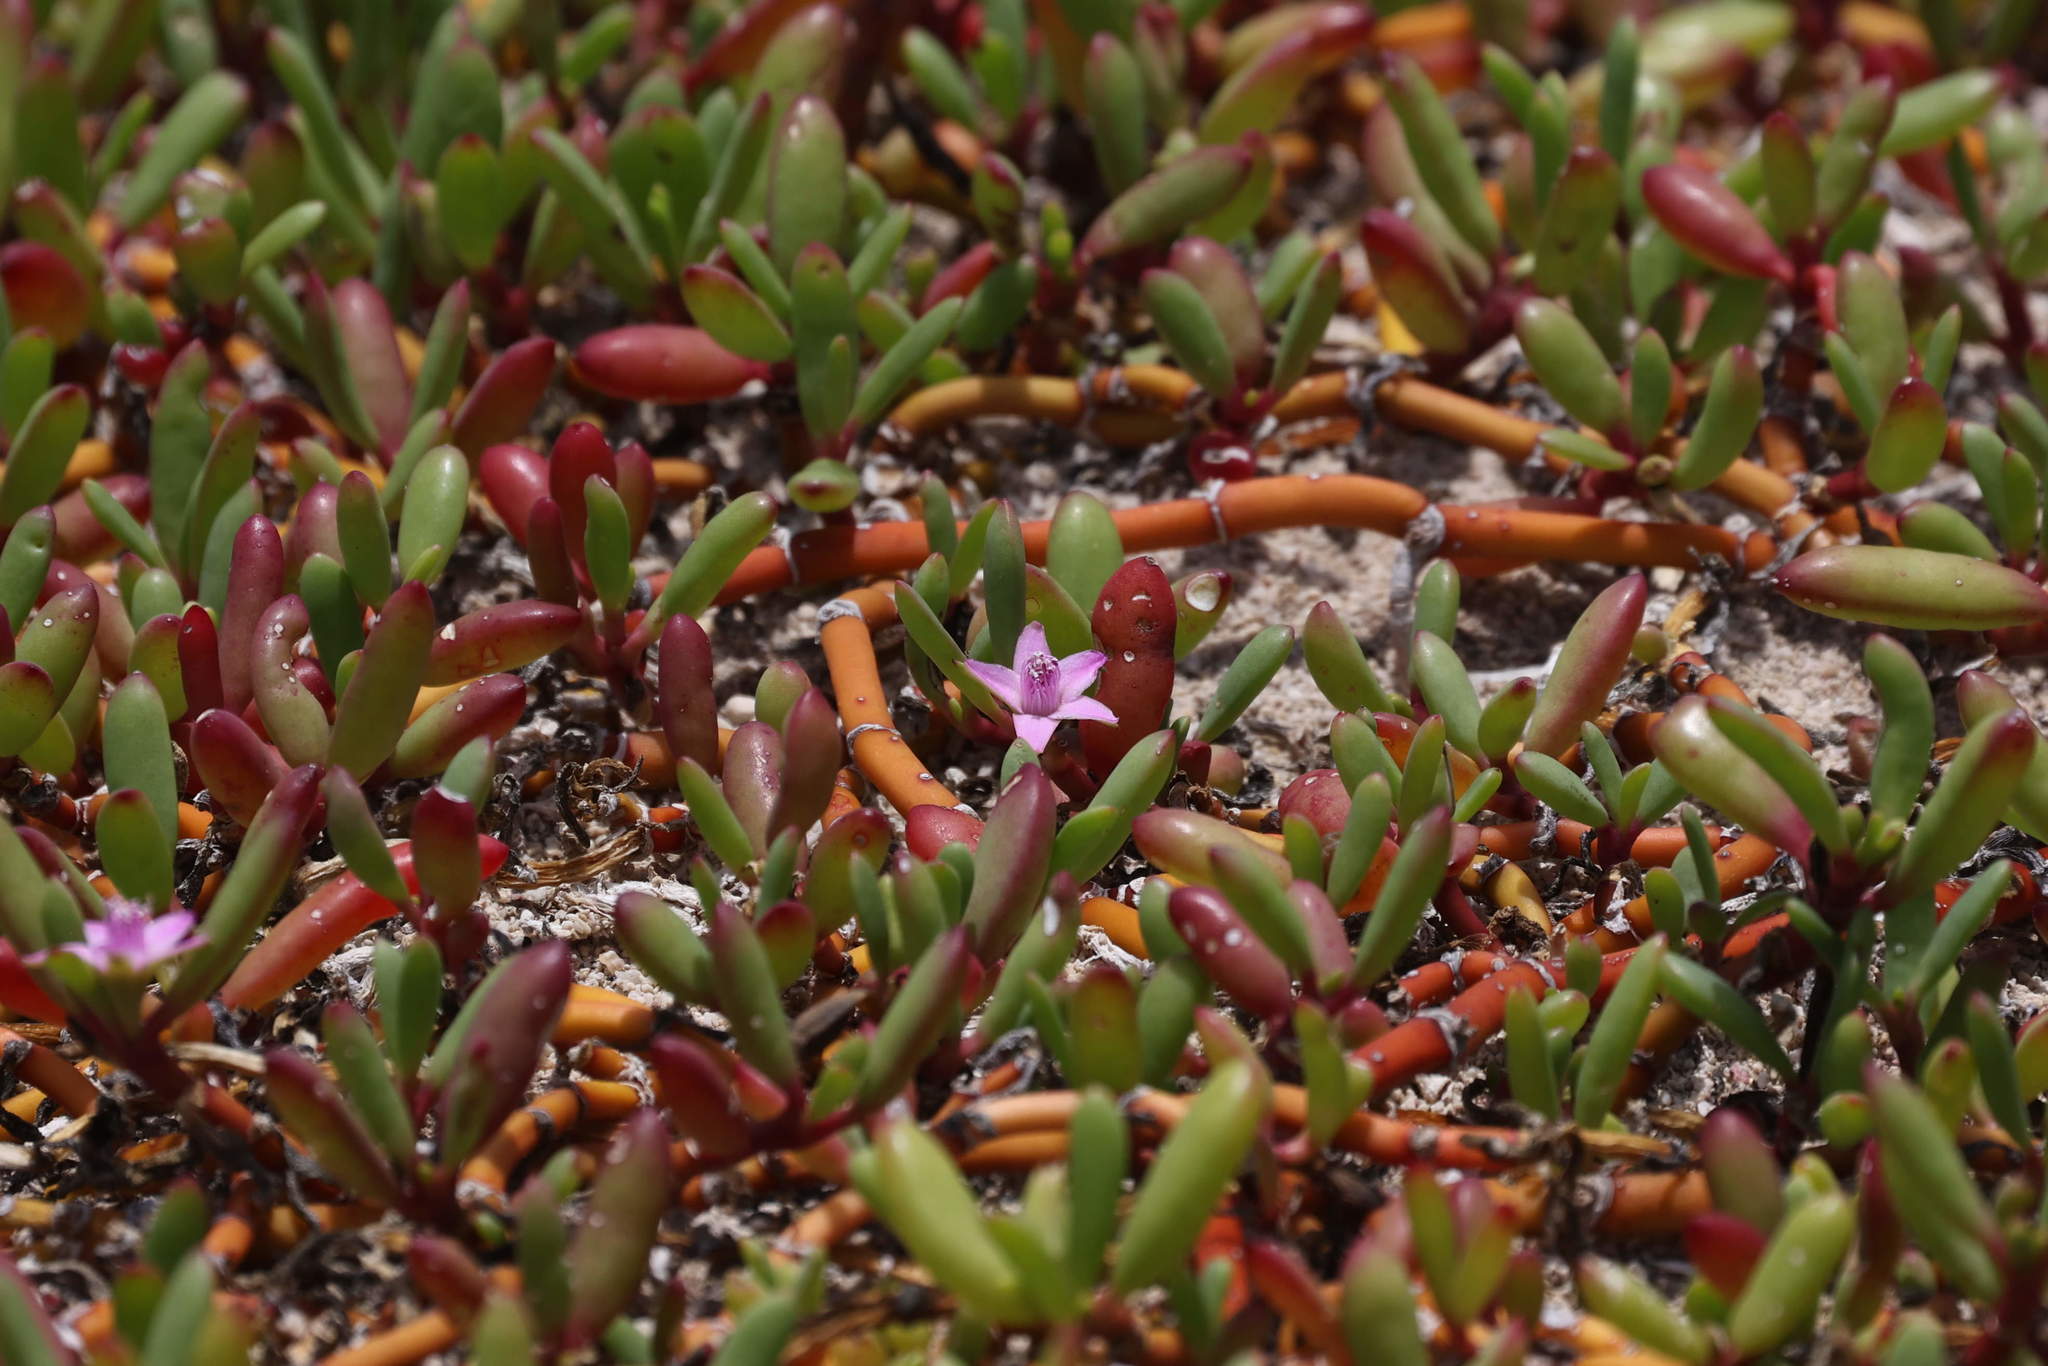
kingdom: Plantae
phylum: Tracheophyta
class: Magnoliopsida
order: Caryophyllales
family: Aizoaceae
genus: Sesuvium
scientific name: Sesuvium portulacastrum
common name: Sea-purslane
